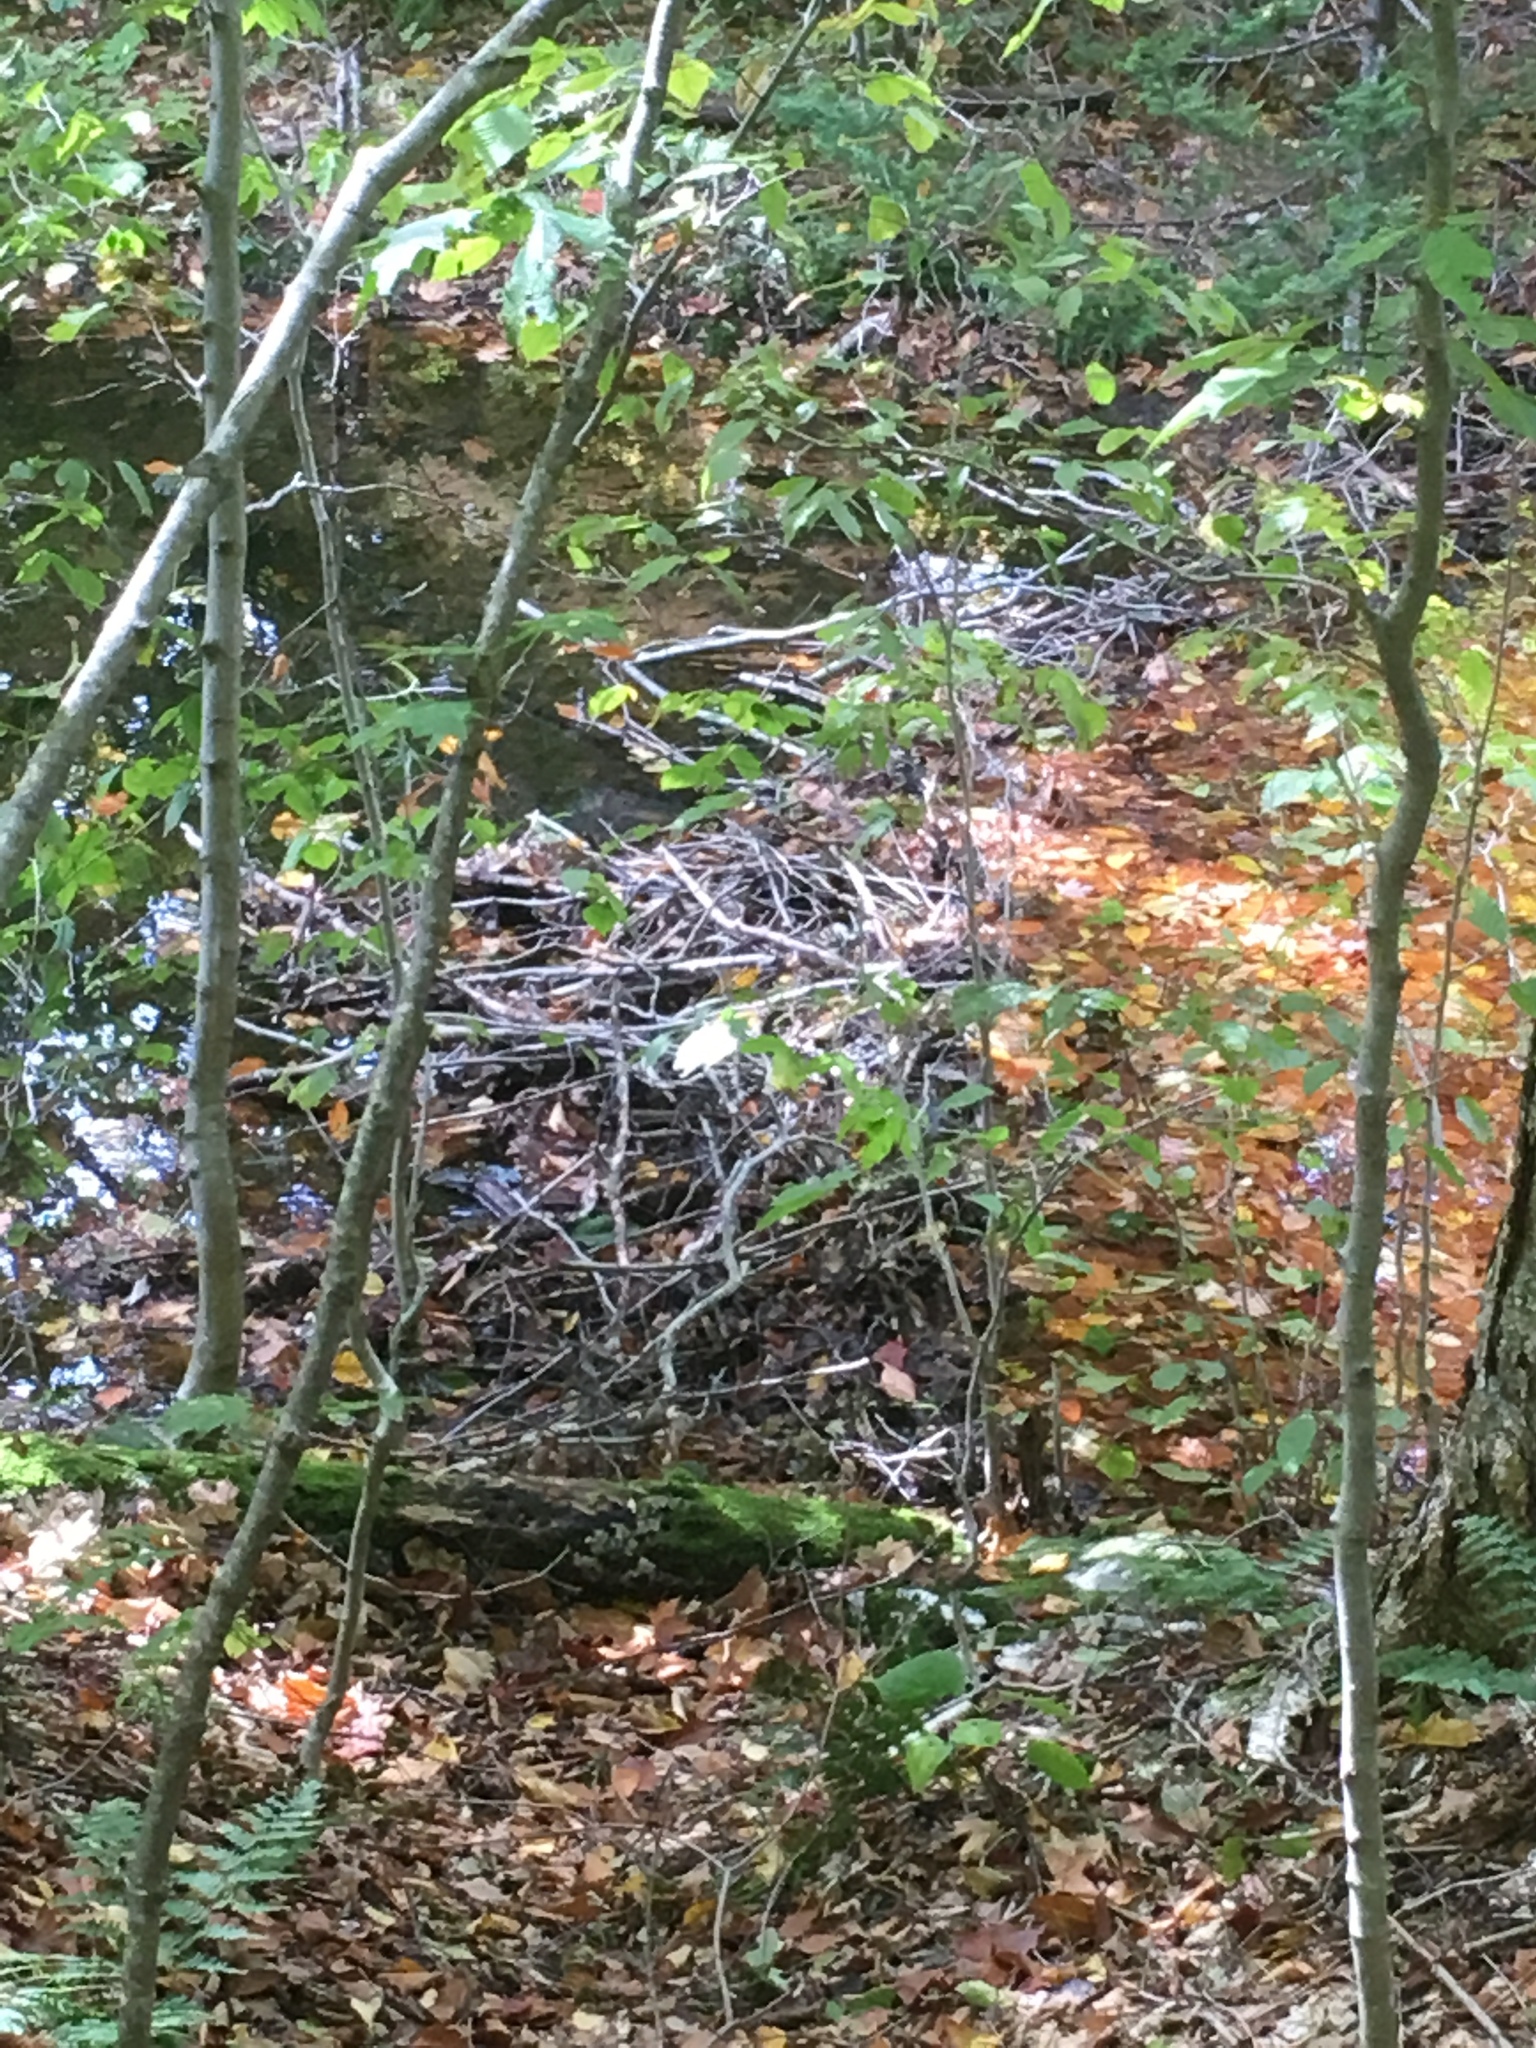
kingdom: Animalia
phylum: Chordata
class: Mammalia
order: Rodentia
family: Castoridae
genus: Castor
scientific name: Castor canadensis
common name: American beaver
